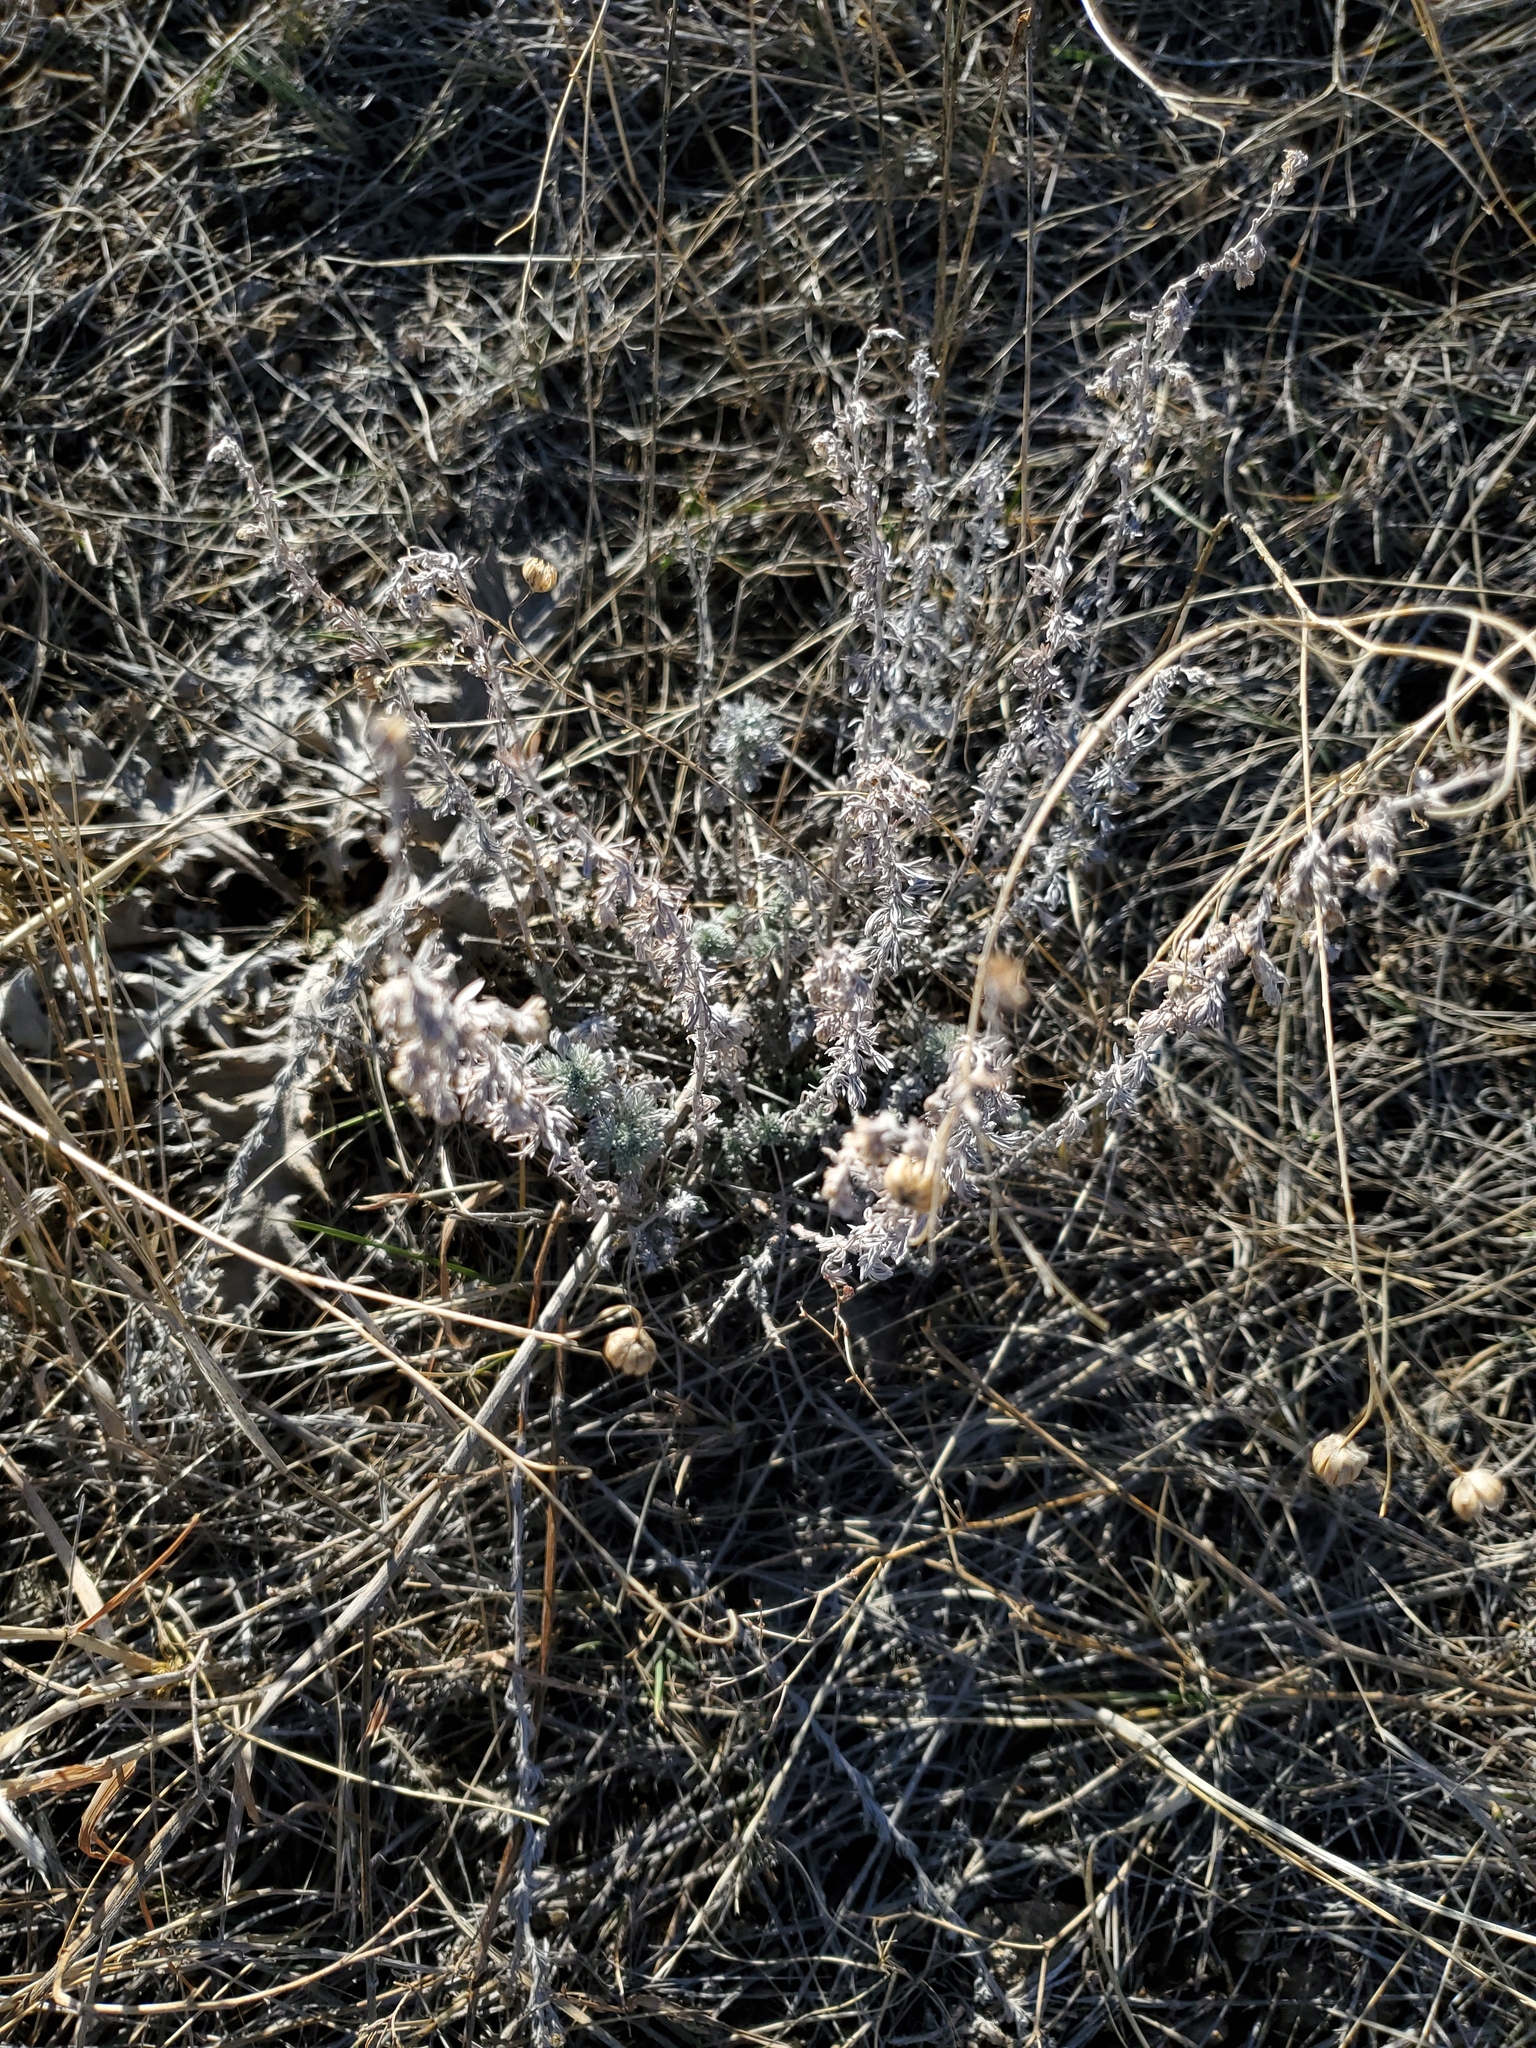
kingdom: Plantae
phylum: Tracheophyta
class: Magnoliopsida
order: Asterales
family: Asteraceae
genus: Artemisia
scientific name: Artemisia frigida
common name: Prairie sagewort
